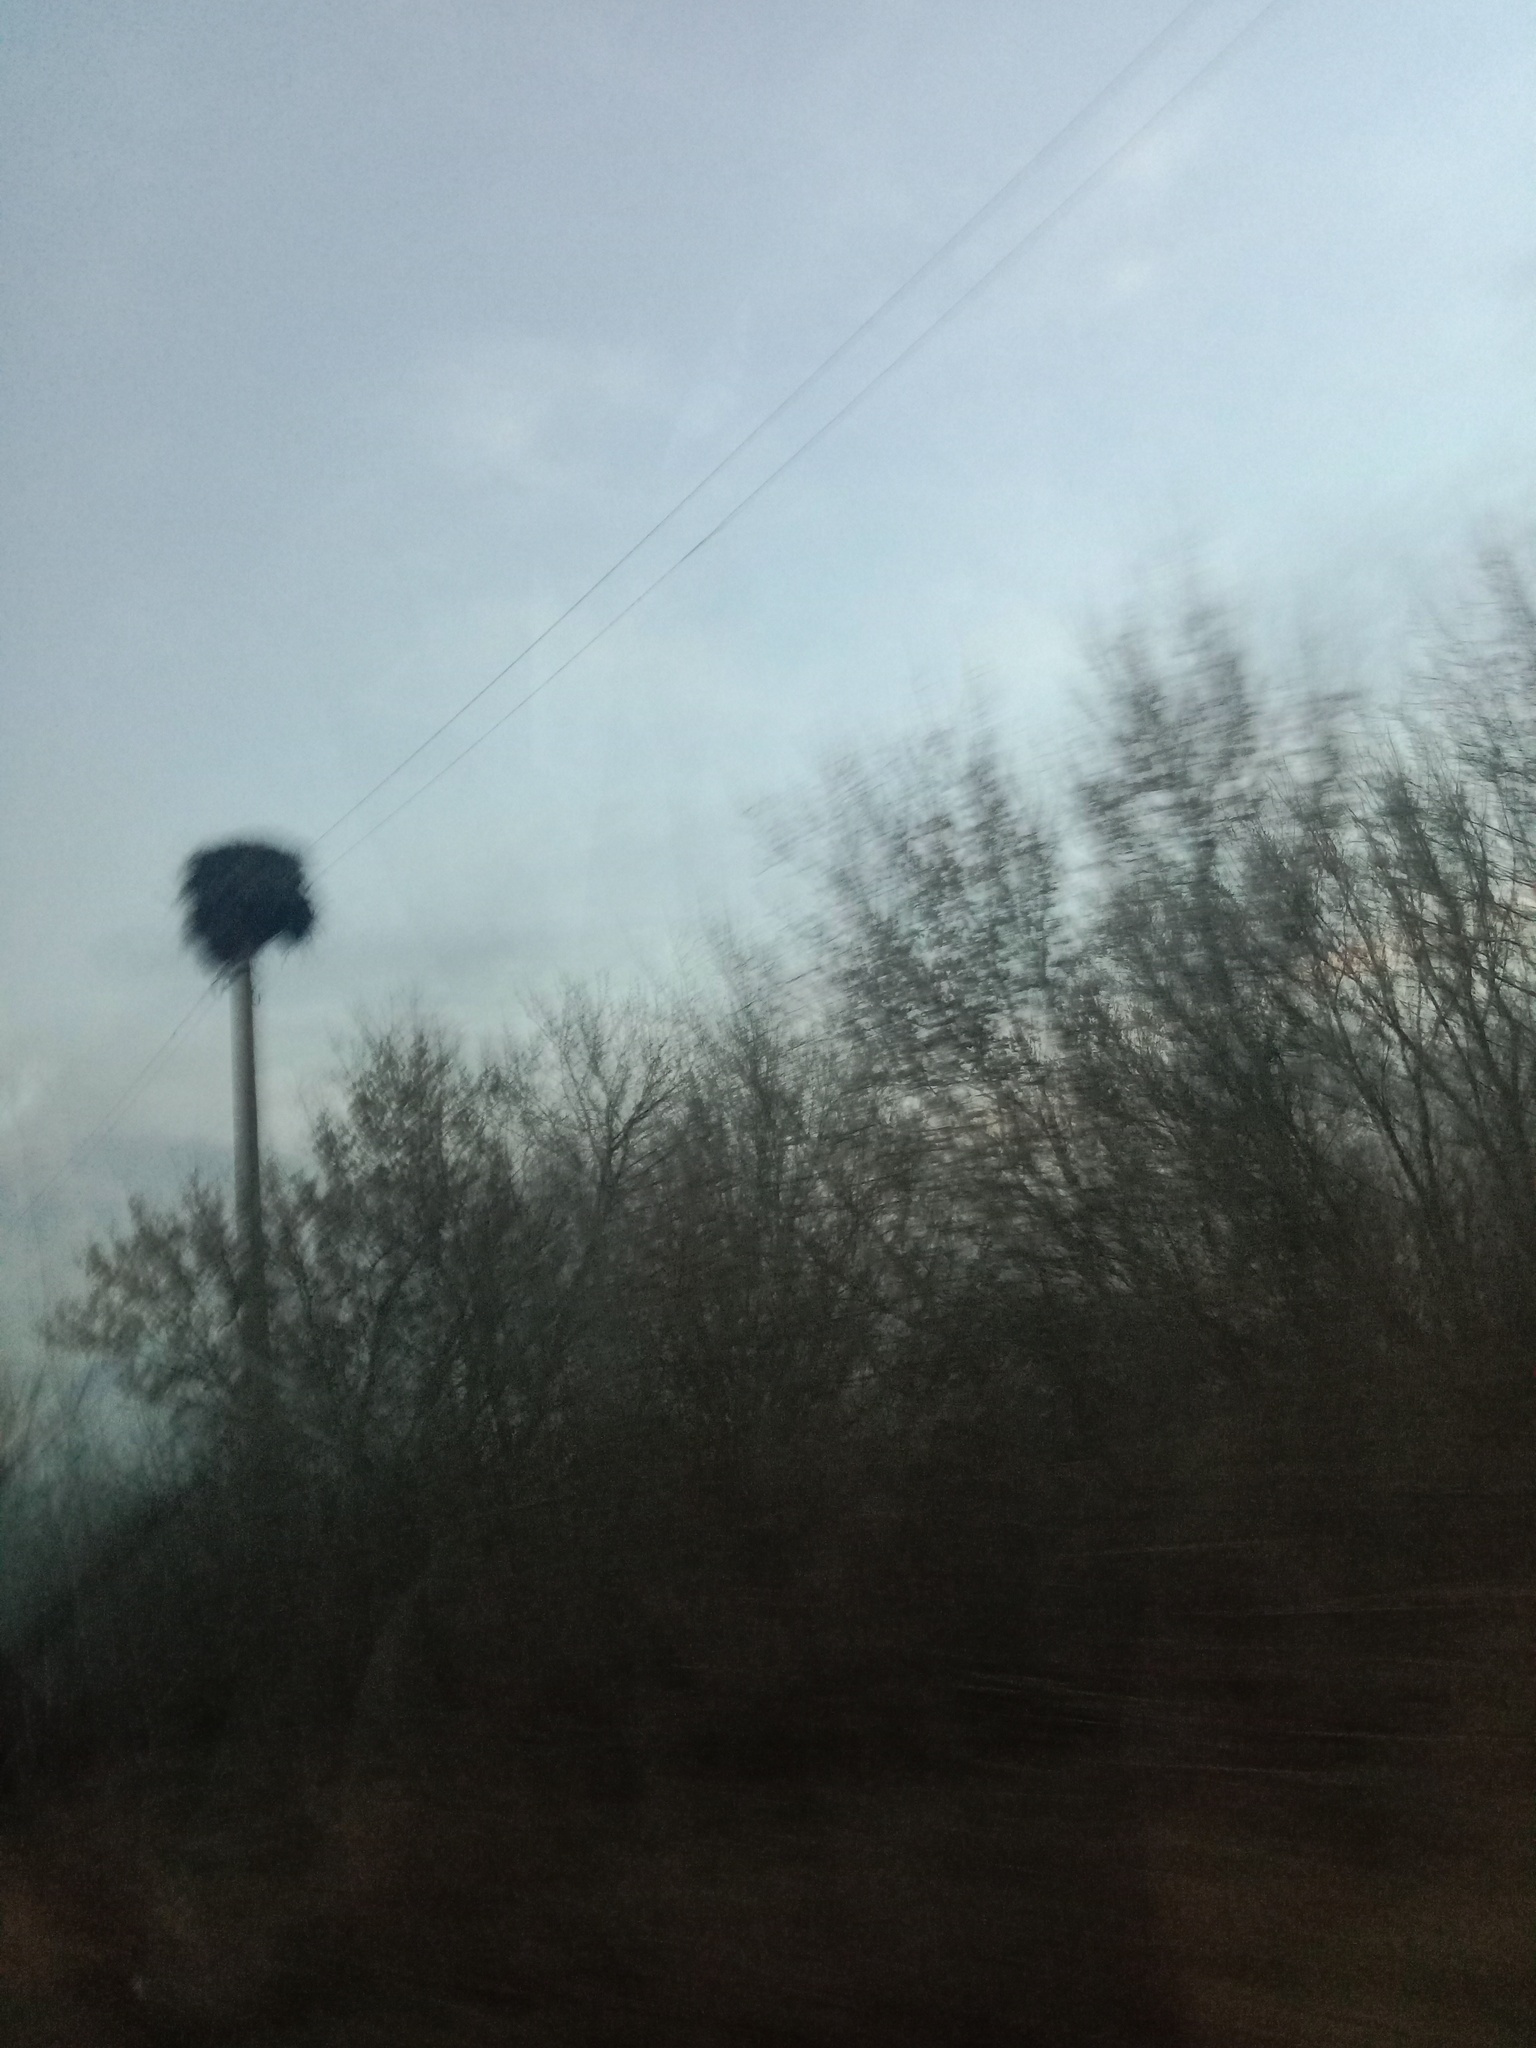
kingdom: Animalia
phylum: Chordata
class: Aves
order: Ciconiiformes
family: Ciconiidae
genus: Ciconia
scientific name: Ciconia ciconia
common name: White stork
